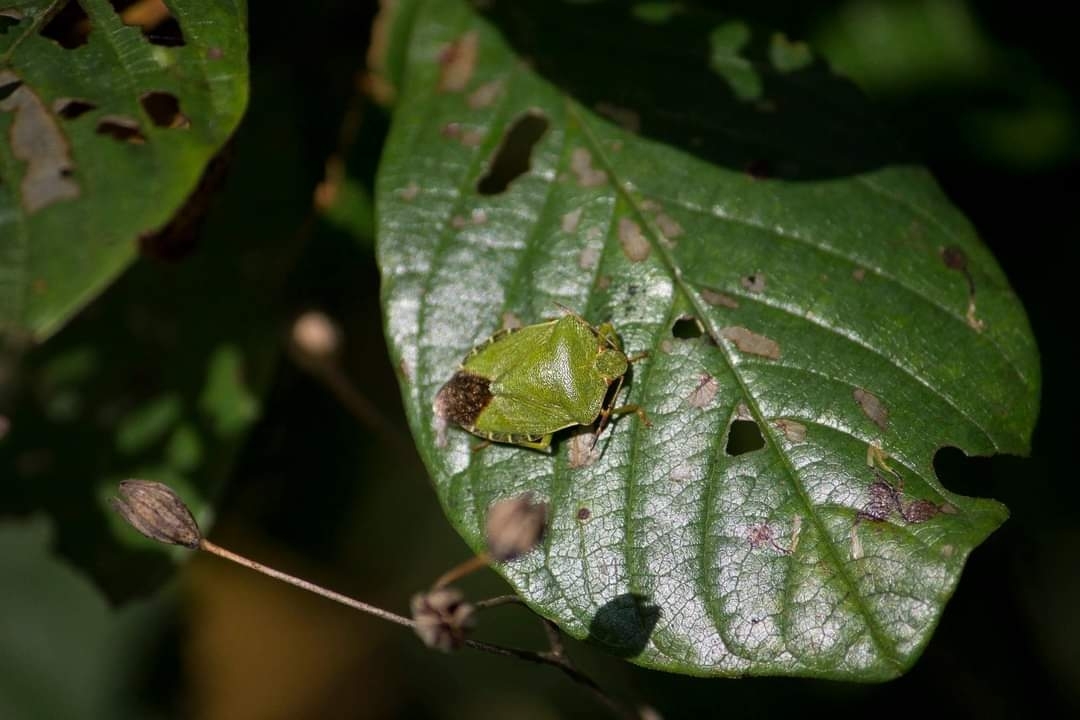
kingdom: Animalia
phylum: Arthropoda
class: Insecta
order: Hemiptera
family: Pentatomidae
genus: Palomena
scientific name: Palomena prasina
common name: Green shieldbug
